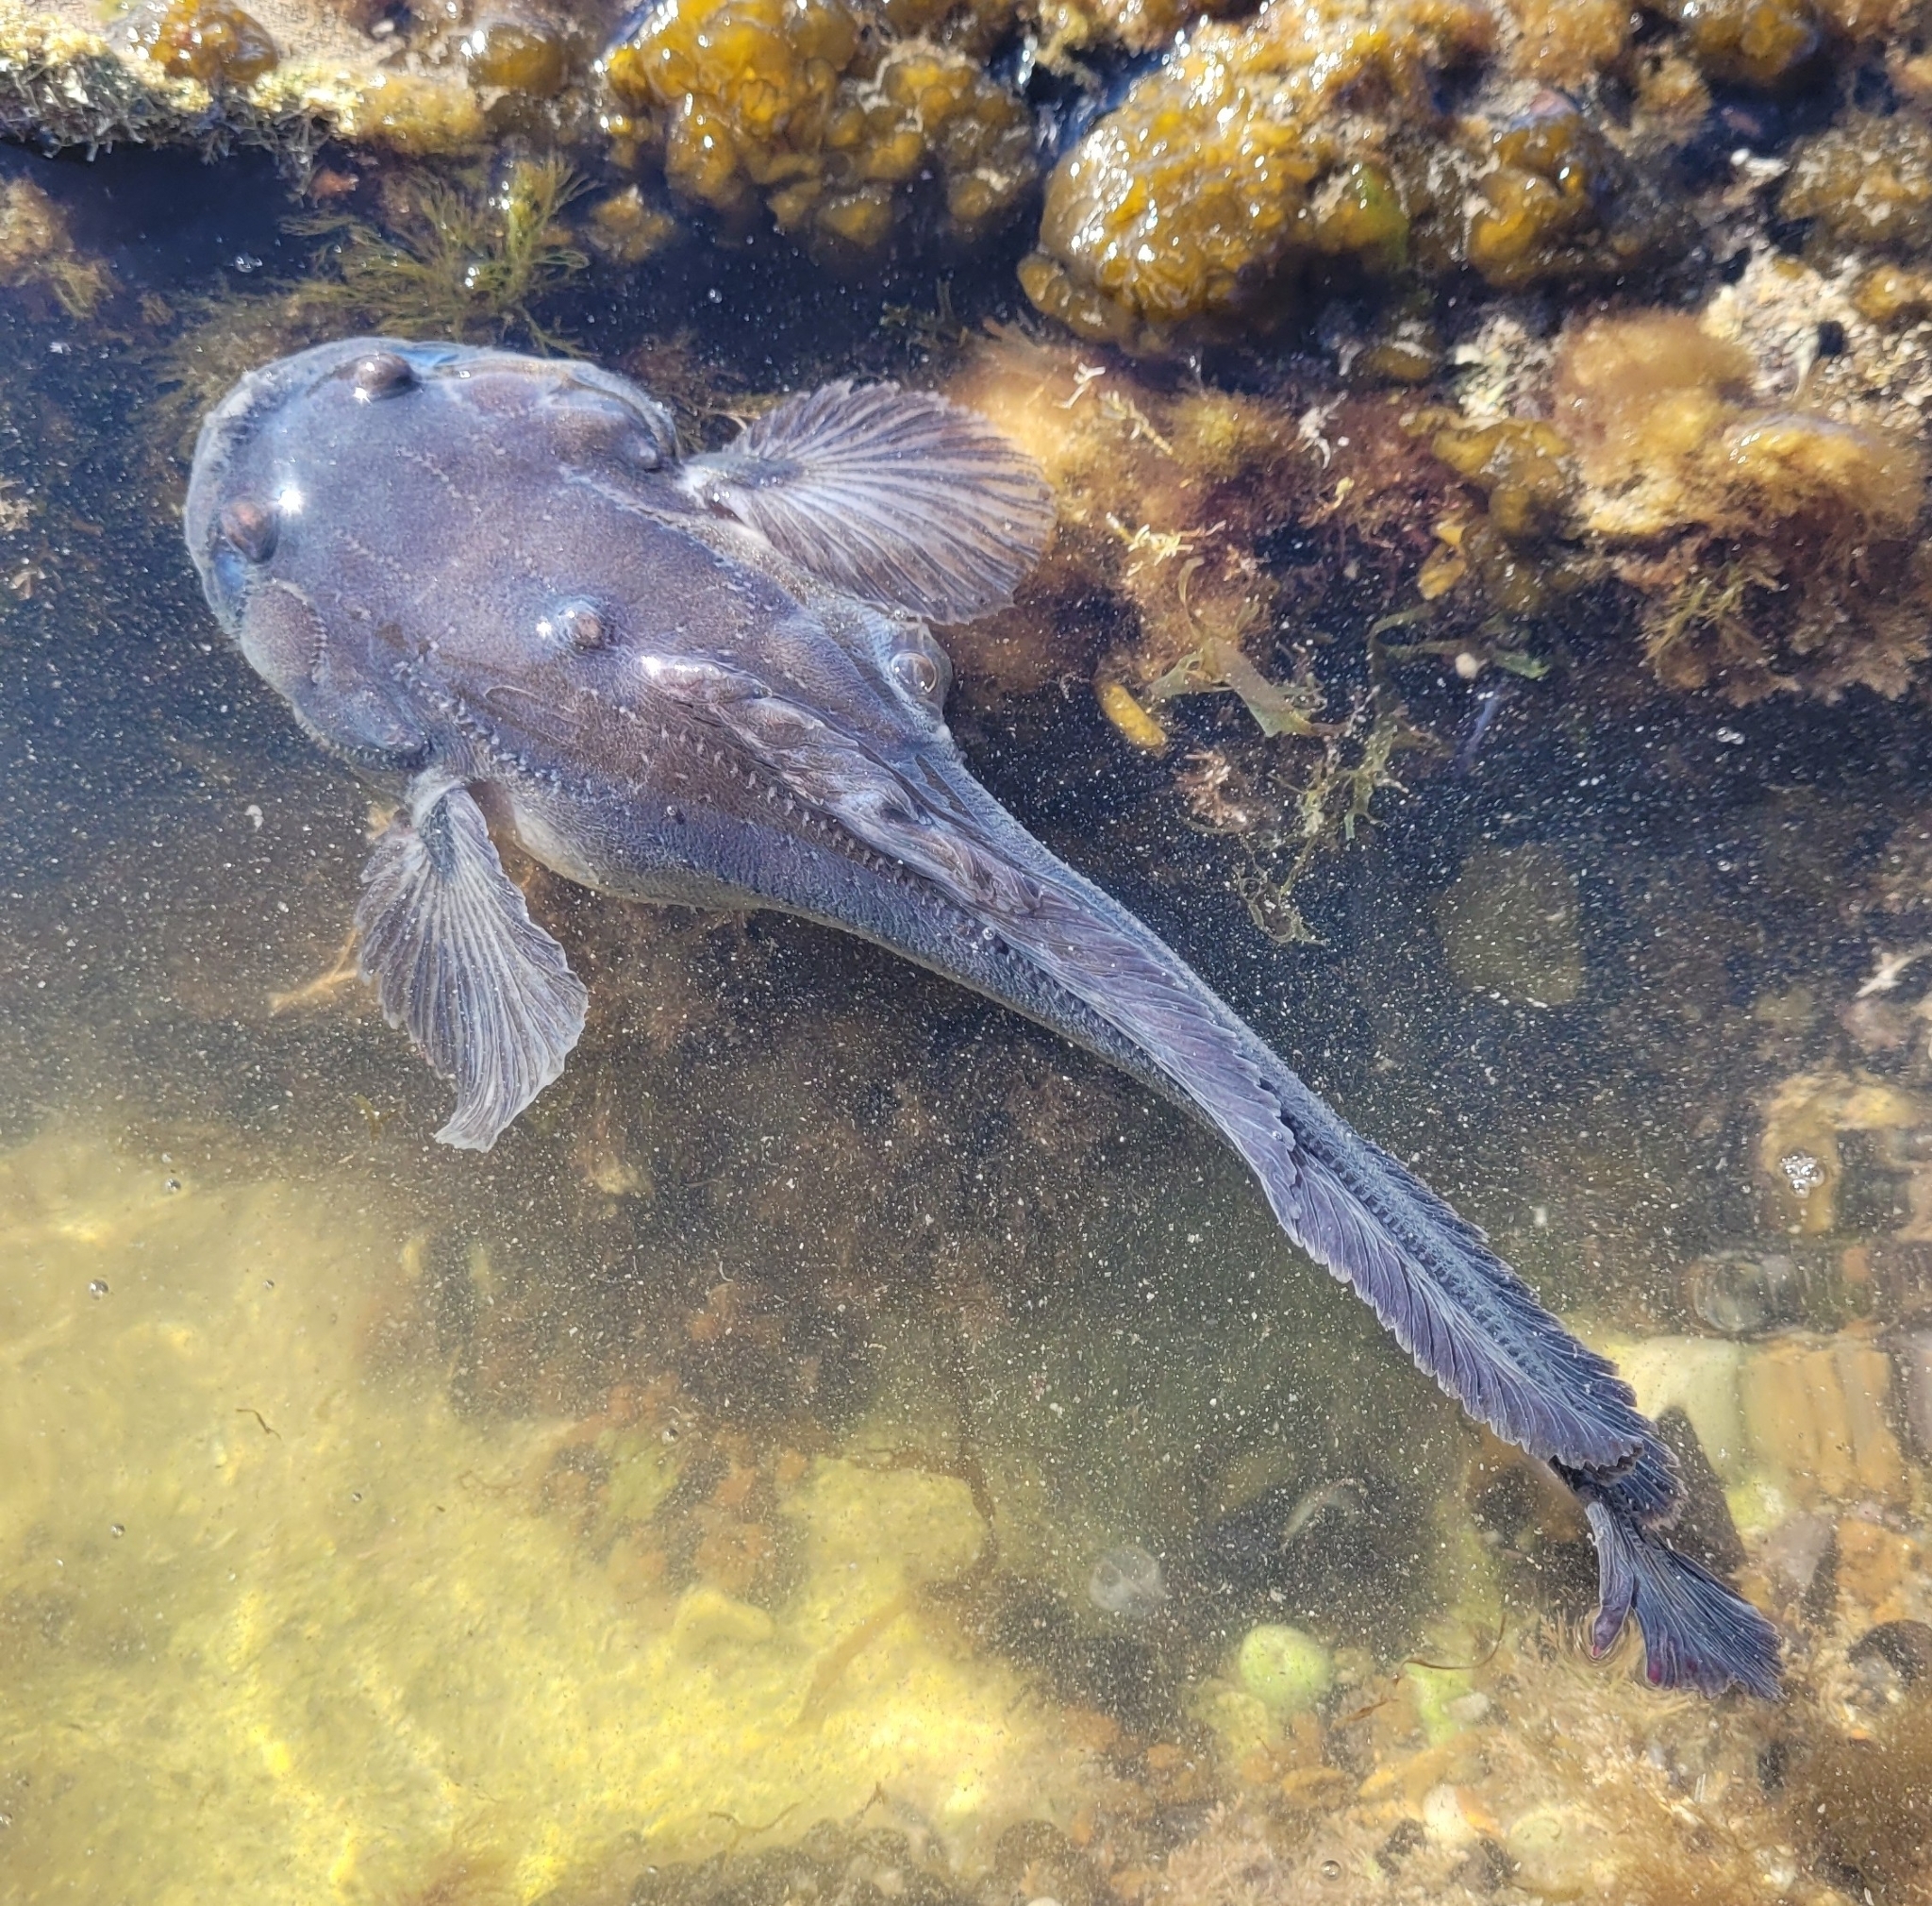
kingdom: Animalia
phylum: Chordata
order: Batrachoidiformes
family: Batrachoididae
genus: Porichthys
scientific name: Porichthys porosissimus
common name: Toadfish
